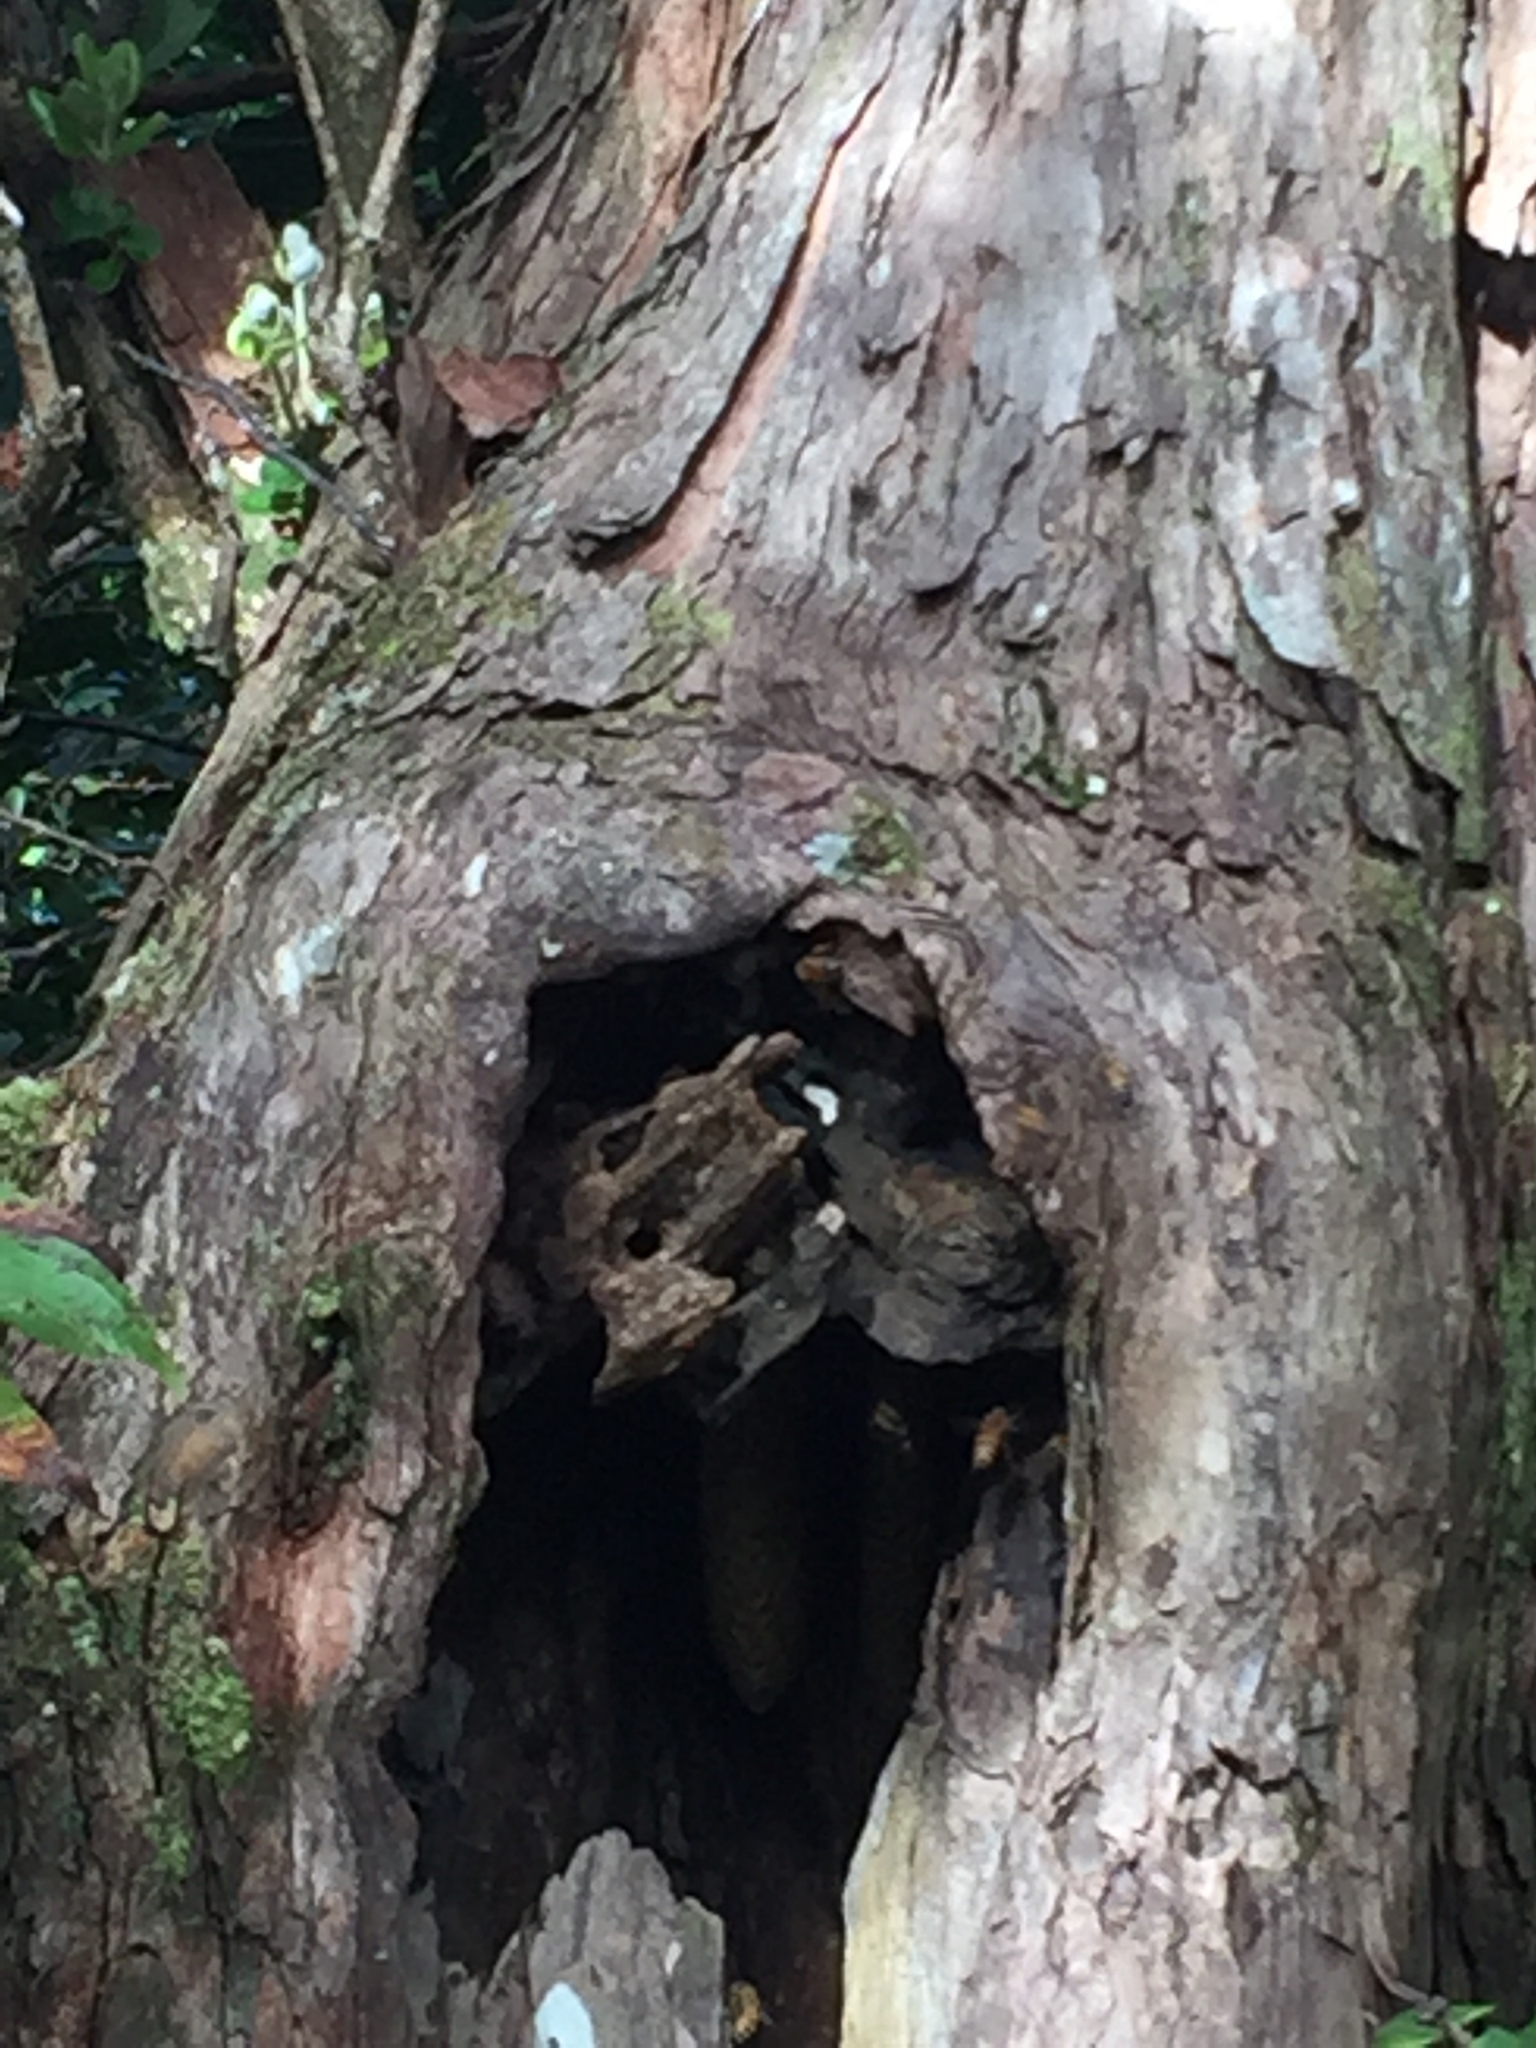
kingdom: Animalia
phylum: Arthropoda
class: Insecta
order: Hymenoptera
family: Apidae
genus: Apis
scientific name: Apis mellifera
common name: Honey bee
